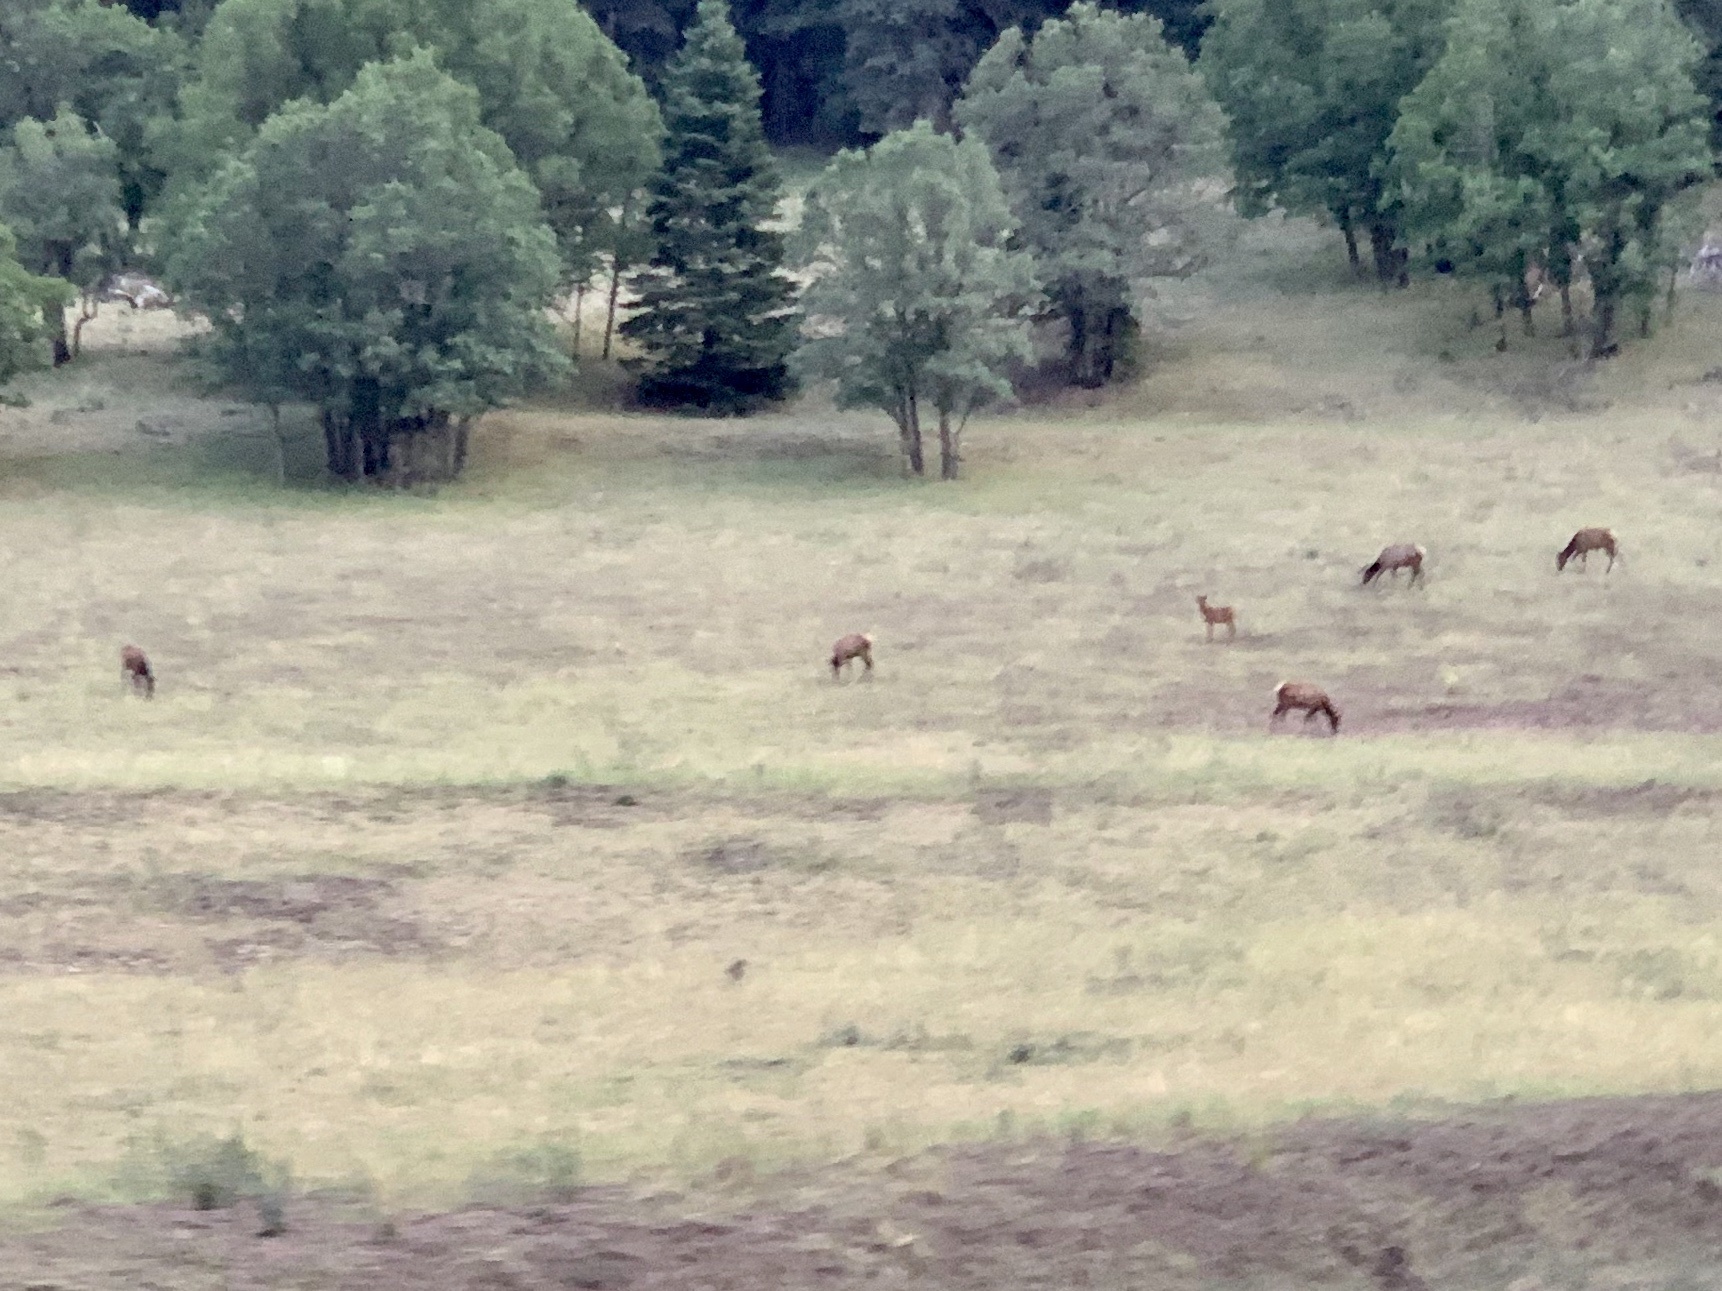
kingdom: Animalia
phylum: Chordata
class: Mammalia
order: Artiodactyla
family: Cervidae
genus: Cervus
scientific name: Cervus elaphus
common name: Red deer
